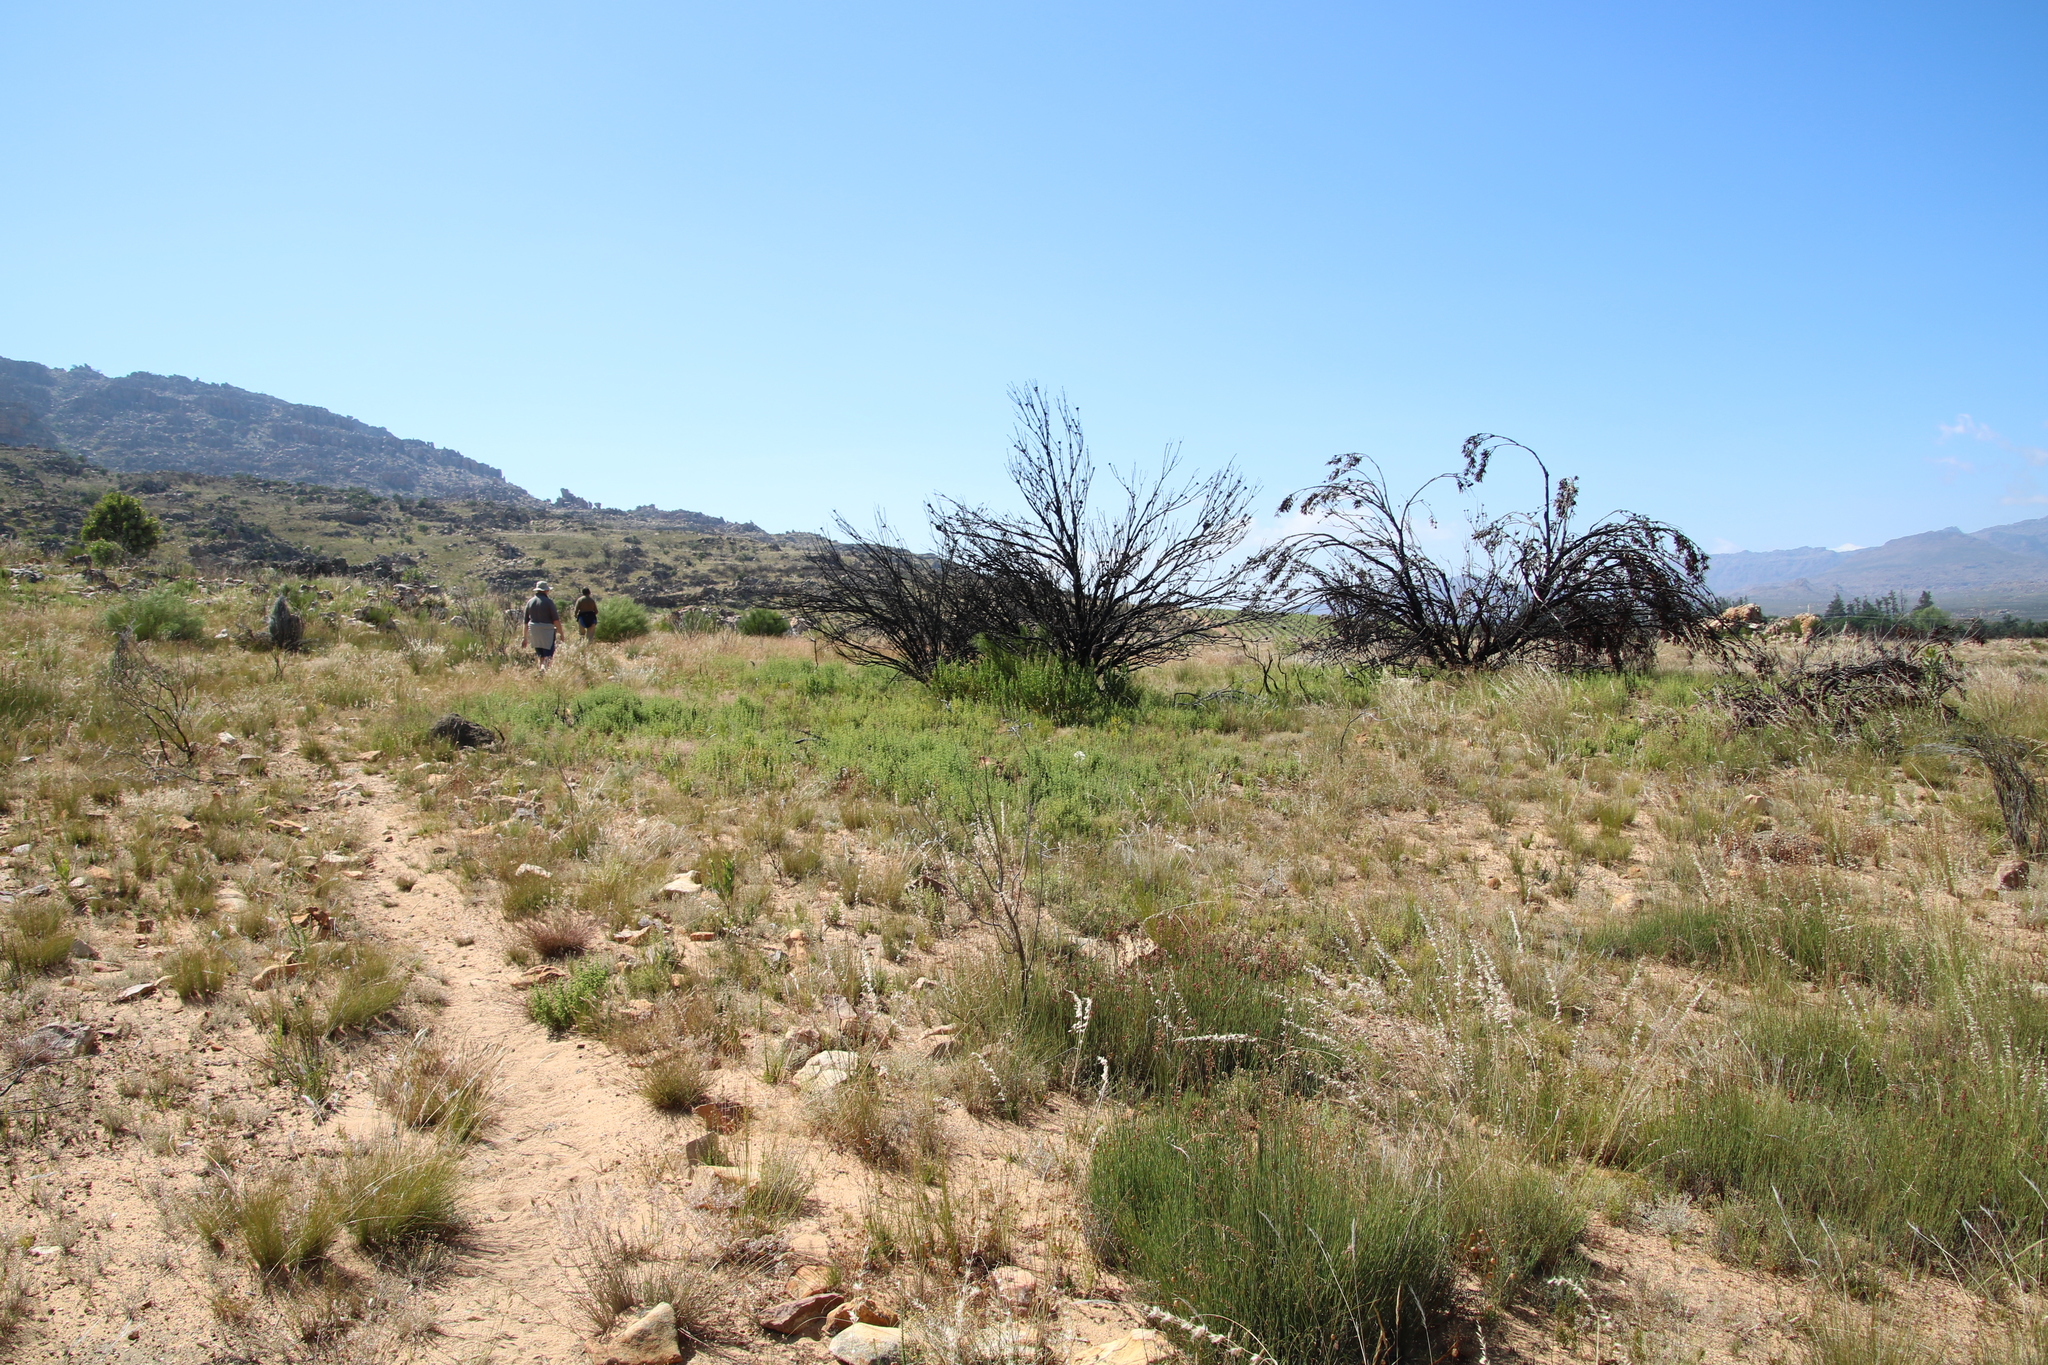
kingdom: Plantae
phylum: Tracheophyta
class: Magnoliopsida
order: Proteales
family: Proteaceae
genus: Protea
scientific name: Protea laurifolia
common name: Grey-leaf sugarbsh
